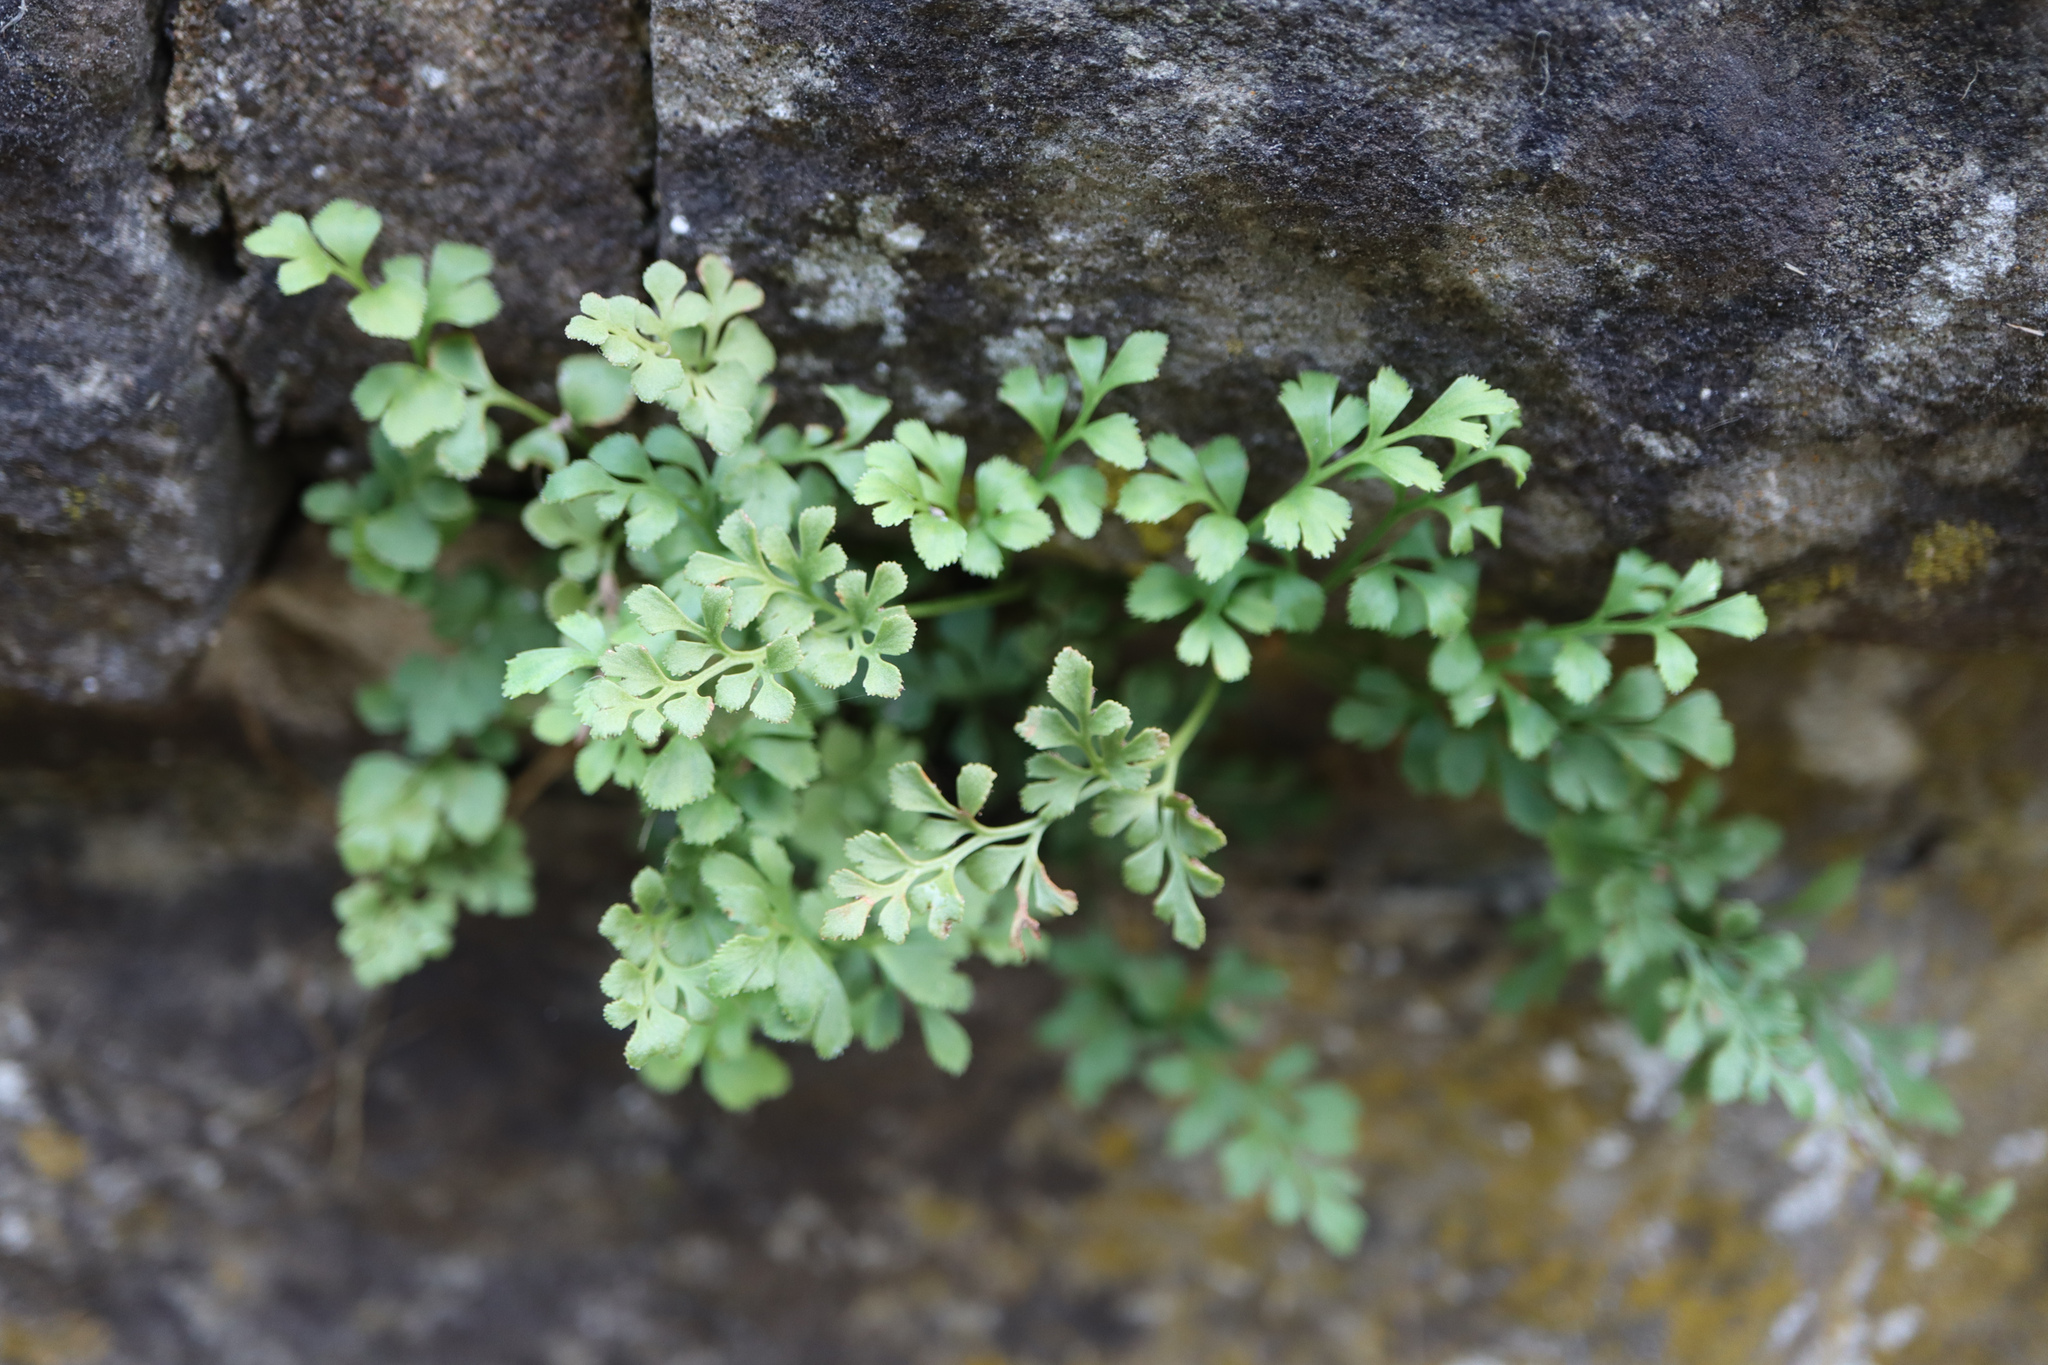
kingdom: Plantae
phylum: Tracheophyta
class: Polypodiopsida
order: Polypodiales
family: Aspleniaceae
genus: Asplenium
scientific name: Asplenium ruta-muraria
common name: Wall-rue
